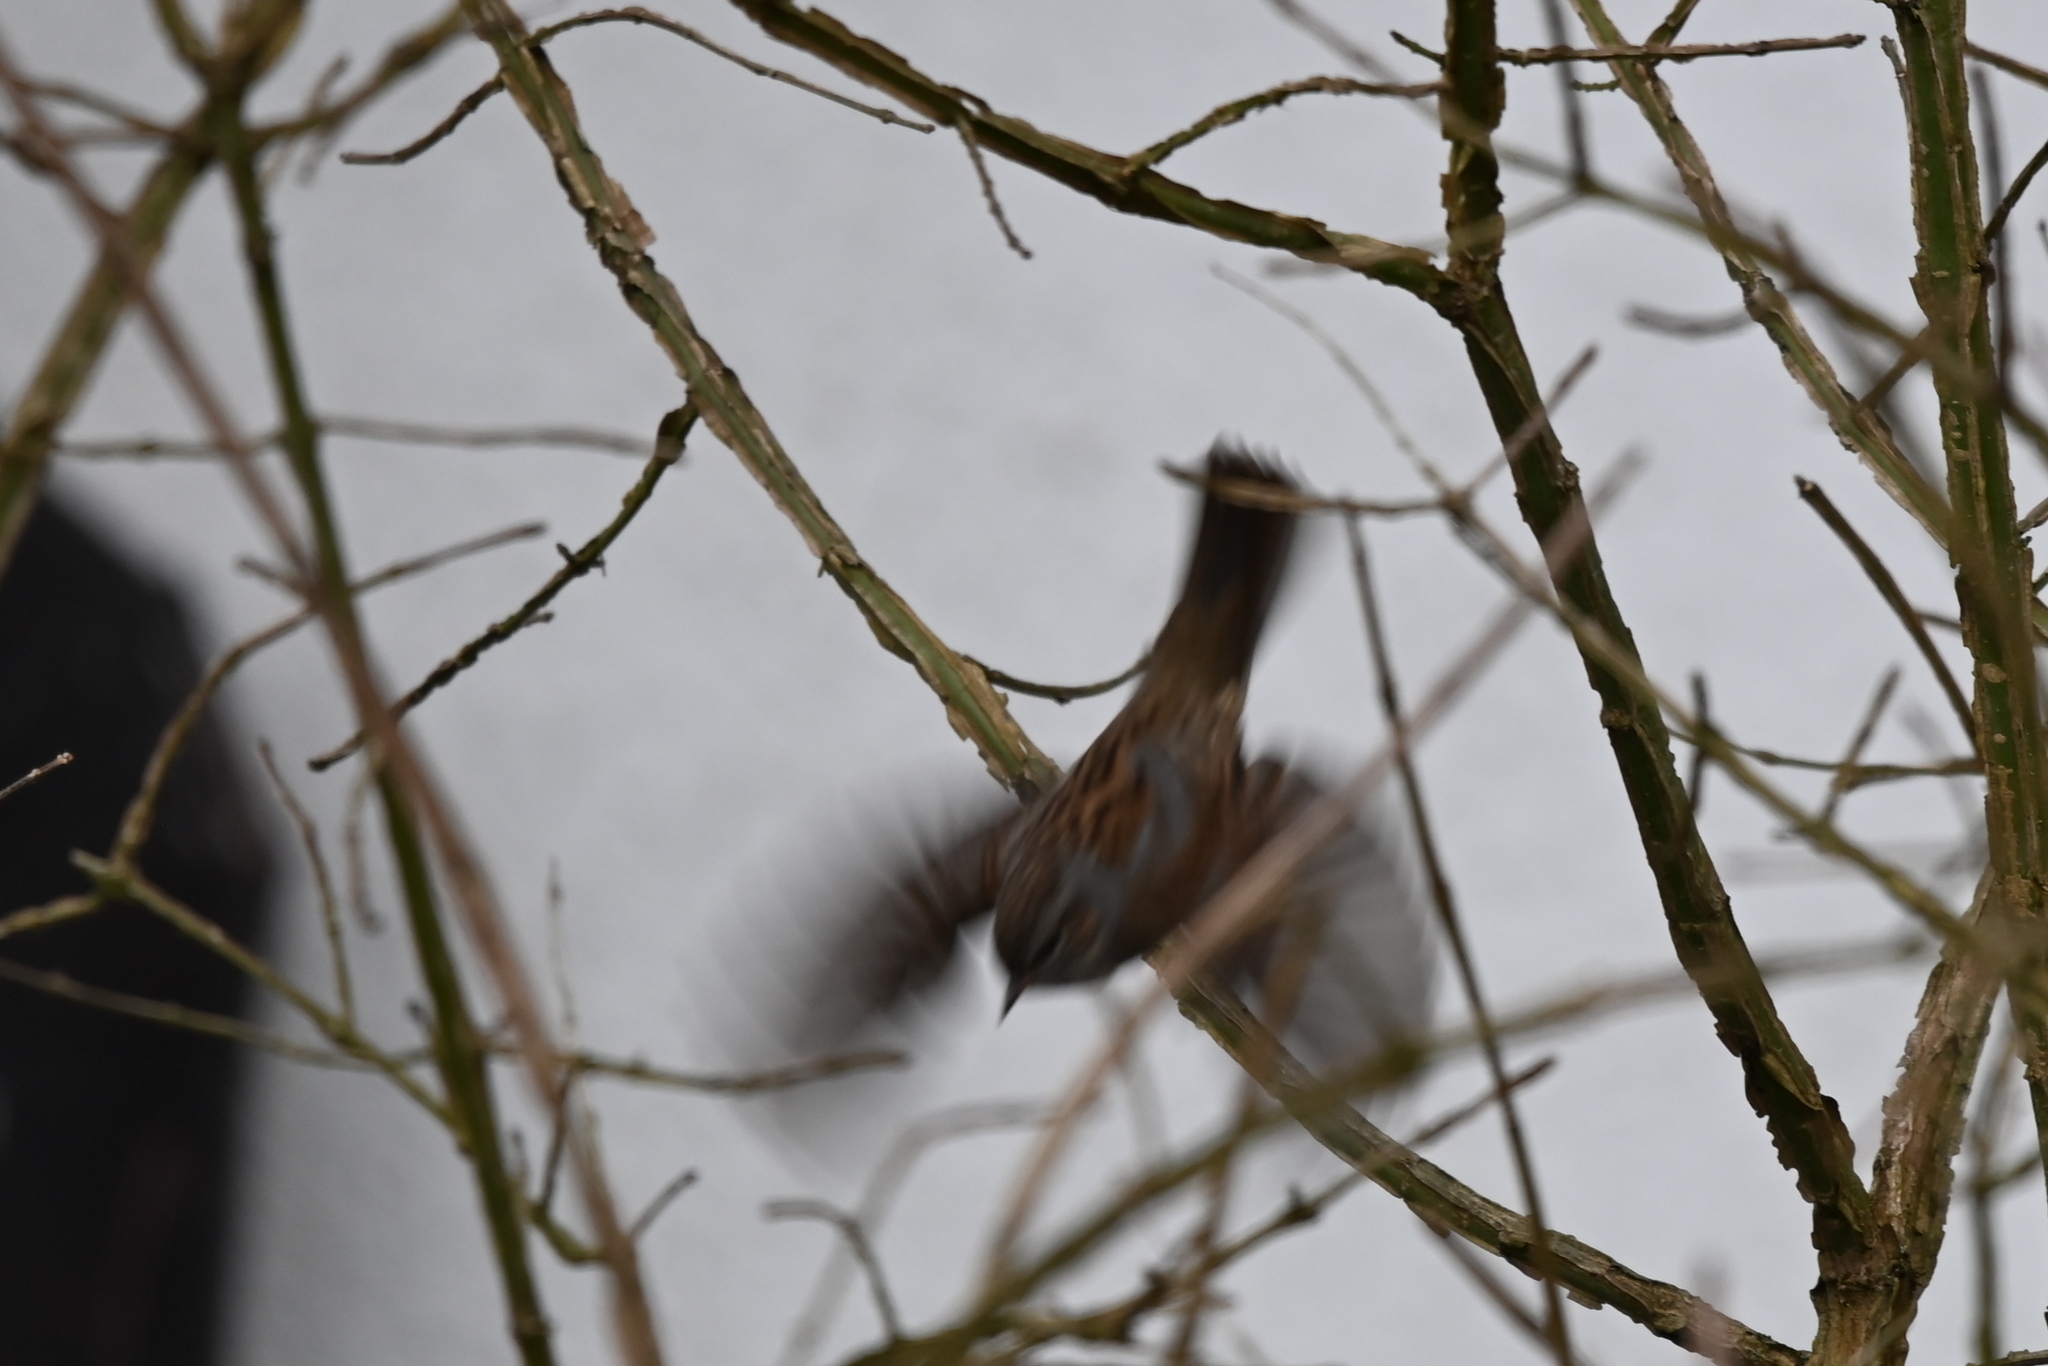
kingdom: Animalia
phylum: Chordata
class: Aves
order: Passeriformes
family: Prunellidae
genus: Prunella
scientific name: Prunella modularis
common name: Dunnock
